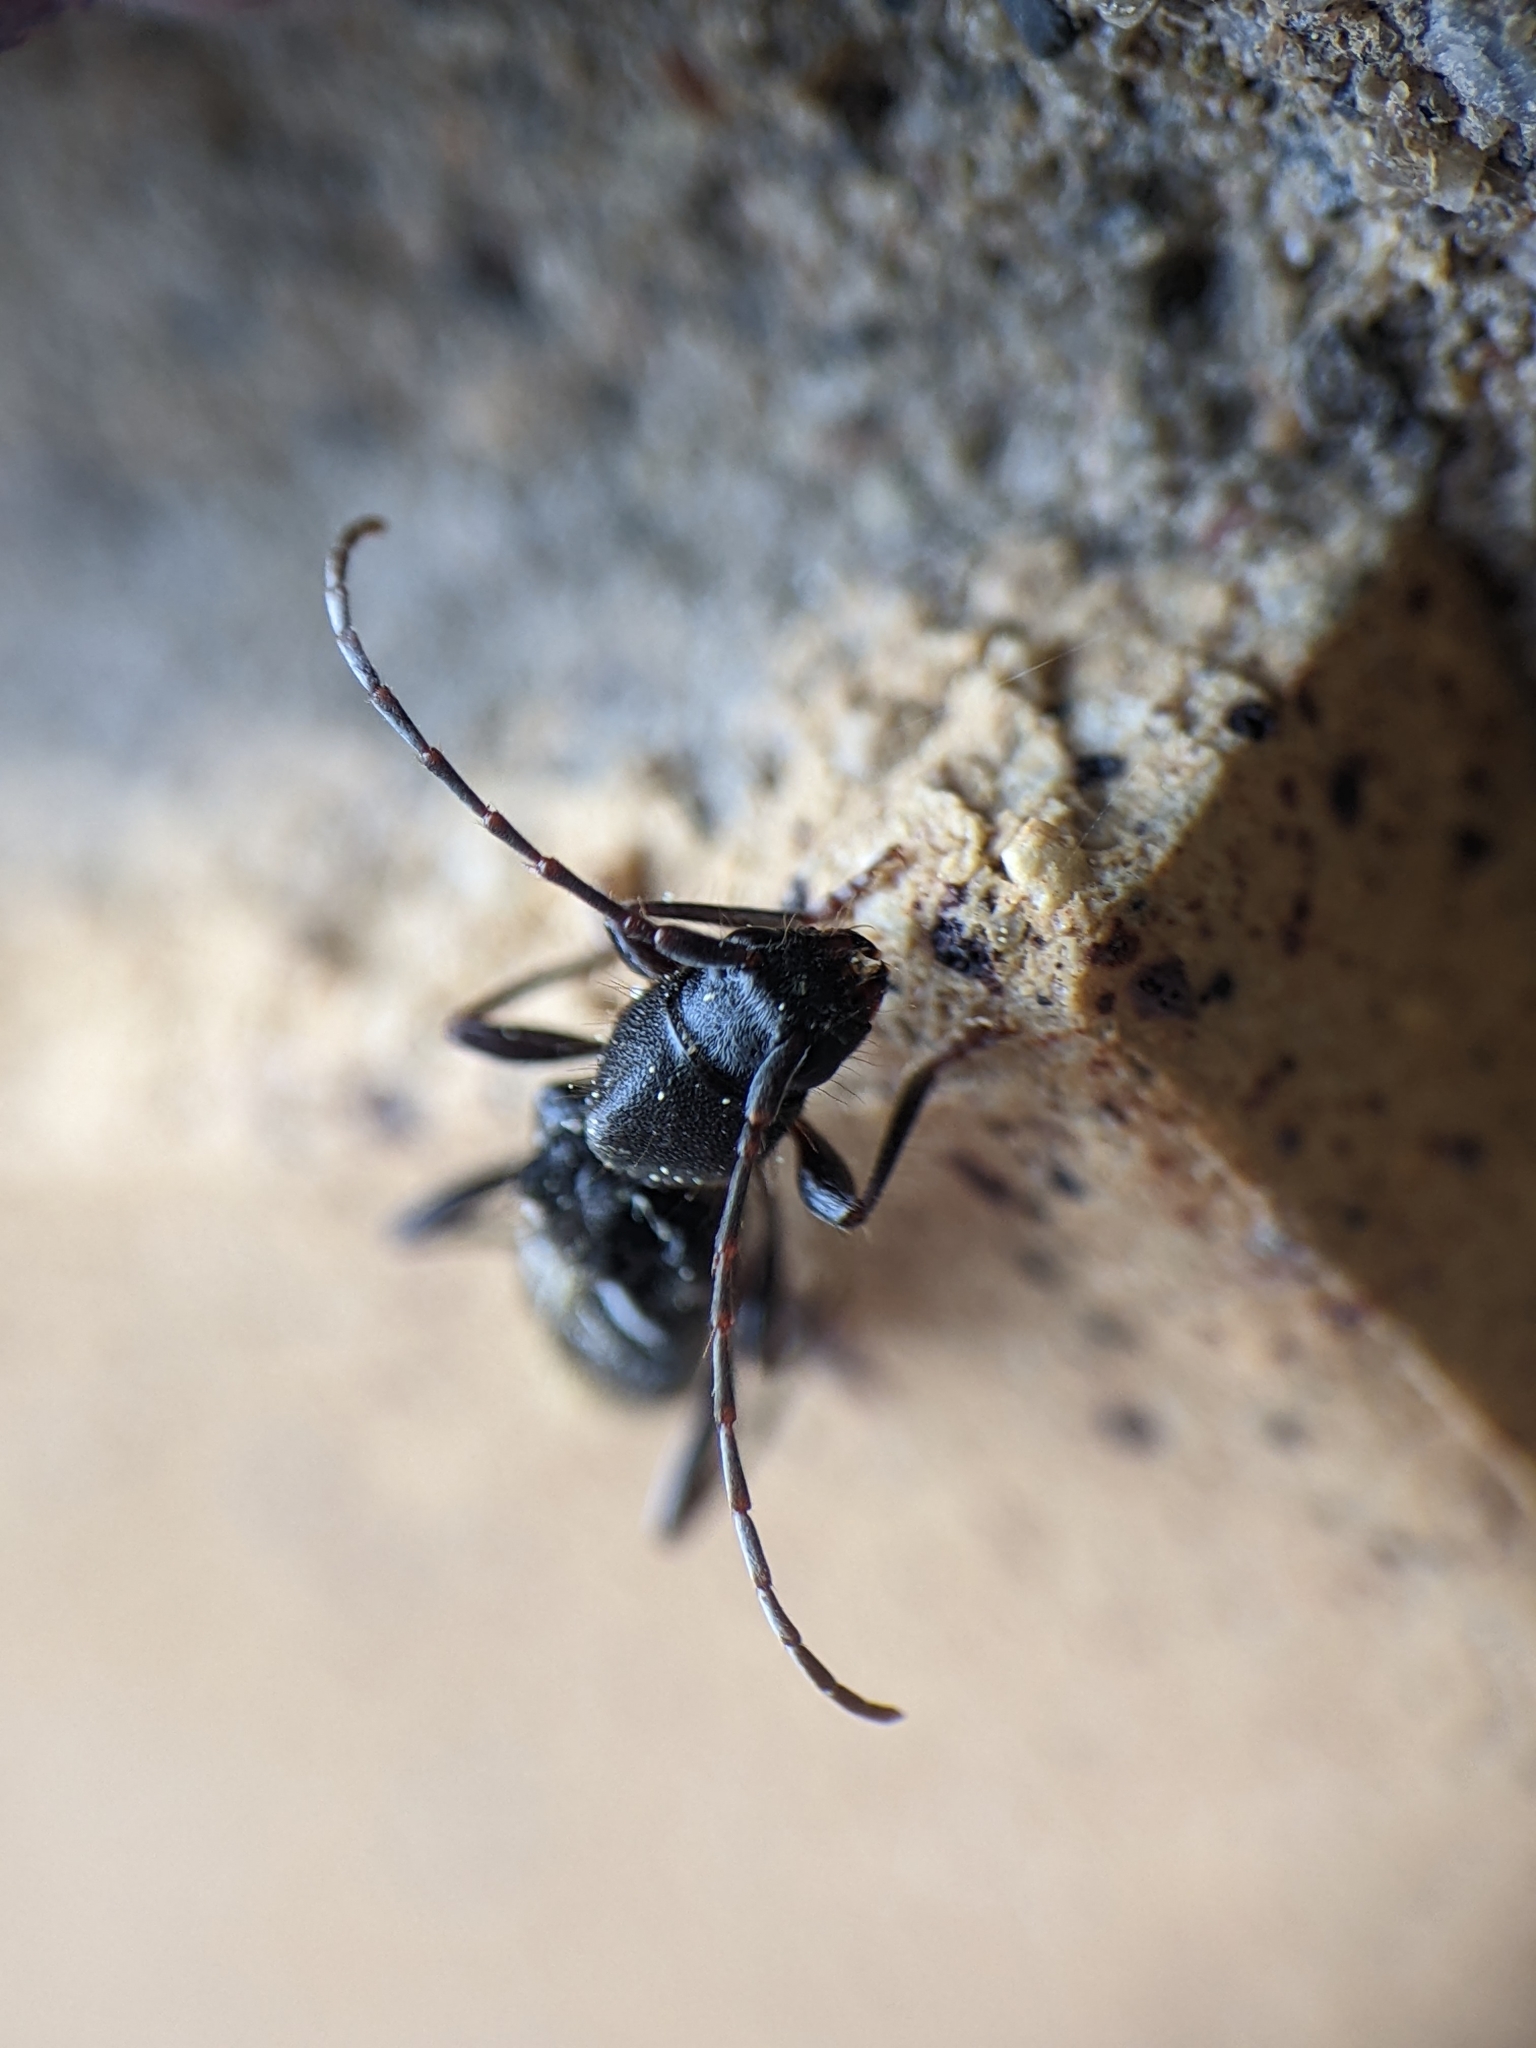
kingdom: Animalia
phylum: Arthropoda
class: Insecta
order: Coleoptera
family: Cerambycidae
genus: Cyrtophorus
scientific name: Cyrtophorus verrucosus
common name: Ant-like longhorn beetle
